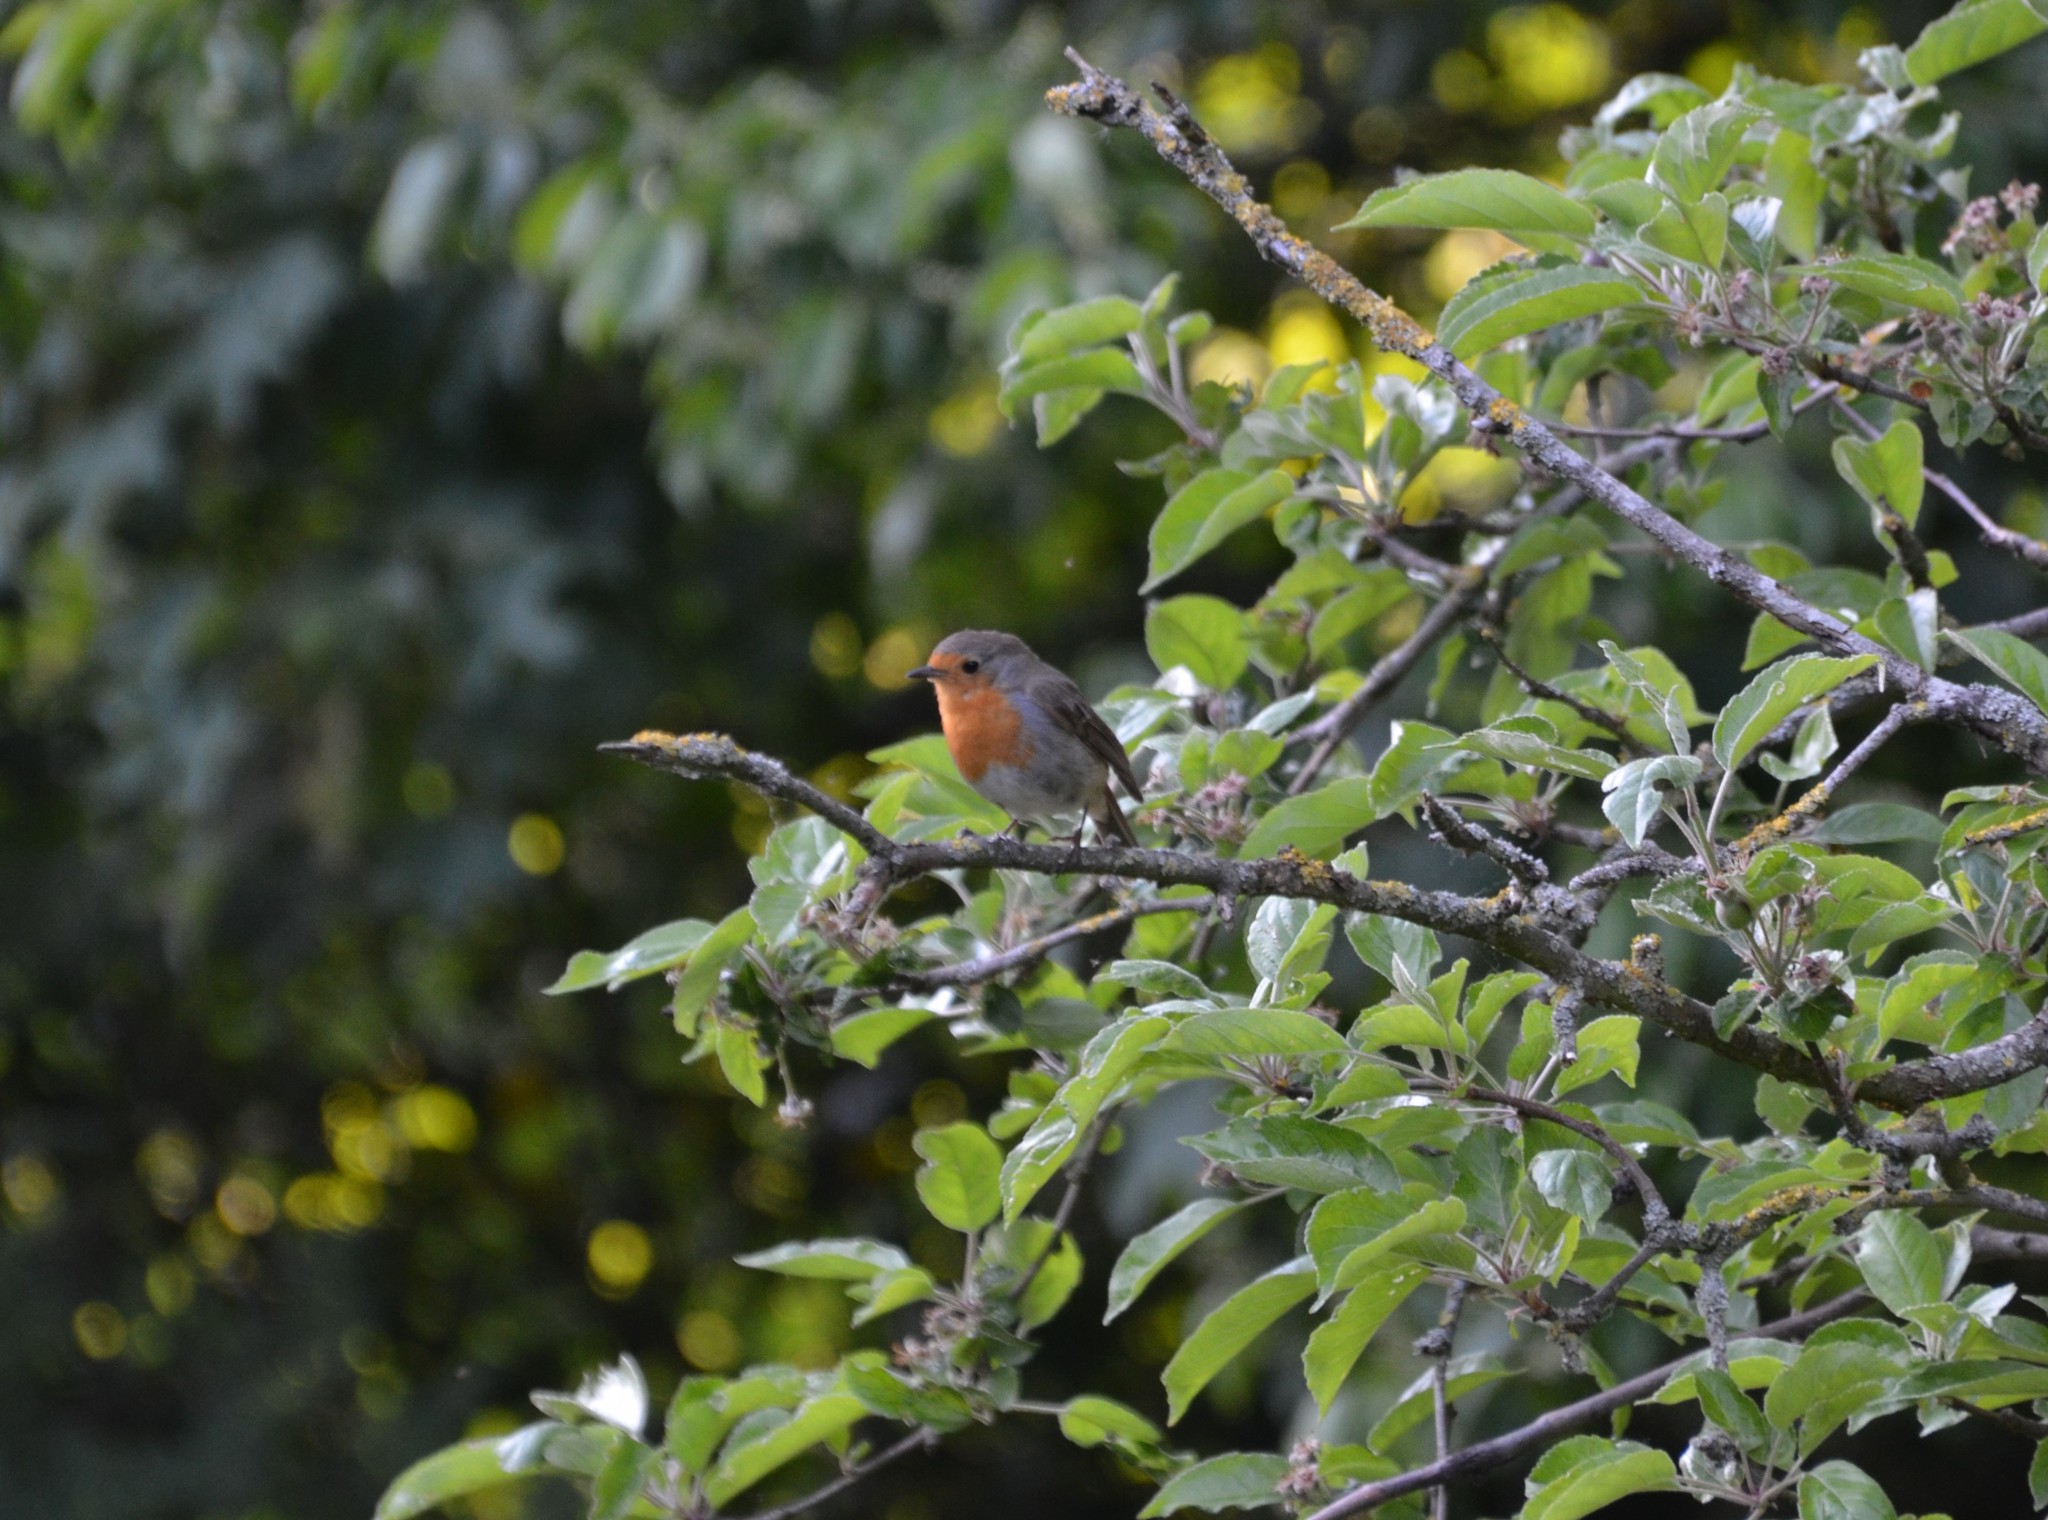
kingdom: Animalia
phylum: Chordata
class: Aves
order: Passeriformes
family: Muscicapidae
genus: Erithacus
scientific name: Erithacus rubecula
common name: European robin
